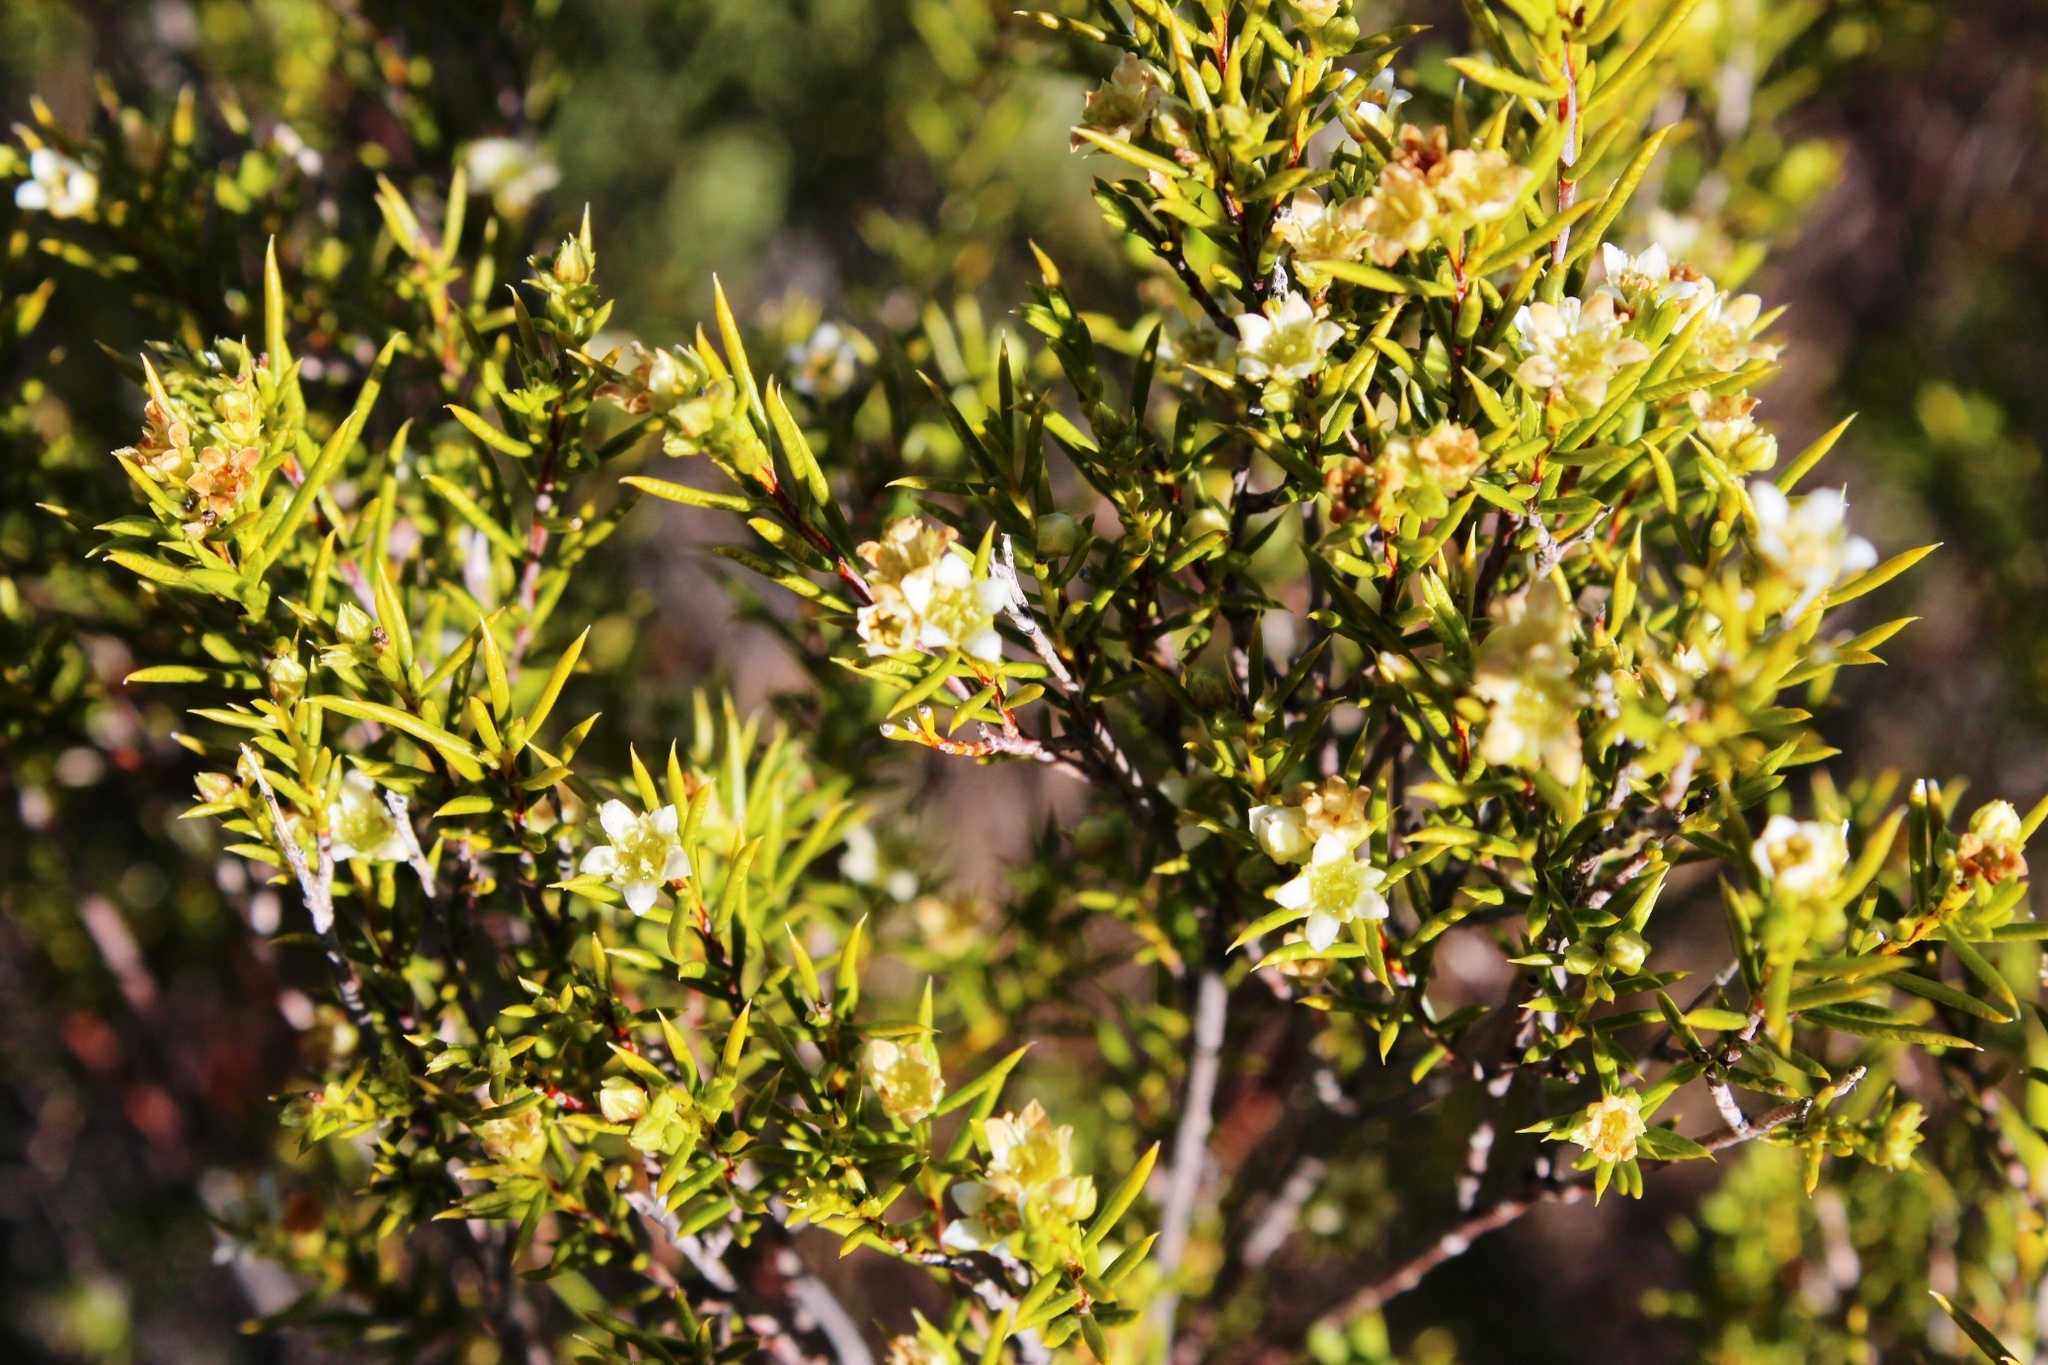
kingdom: Plantae
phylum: Tracheophyta
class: Magnoliopsida
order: Sapindales
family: Rutaceae
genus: Diosma
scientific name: Diosma acmaeophylla
